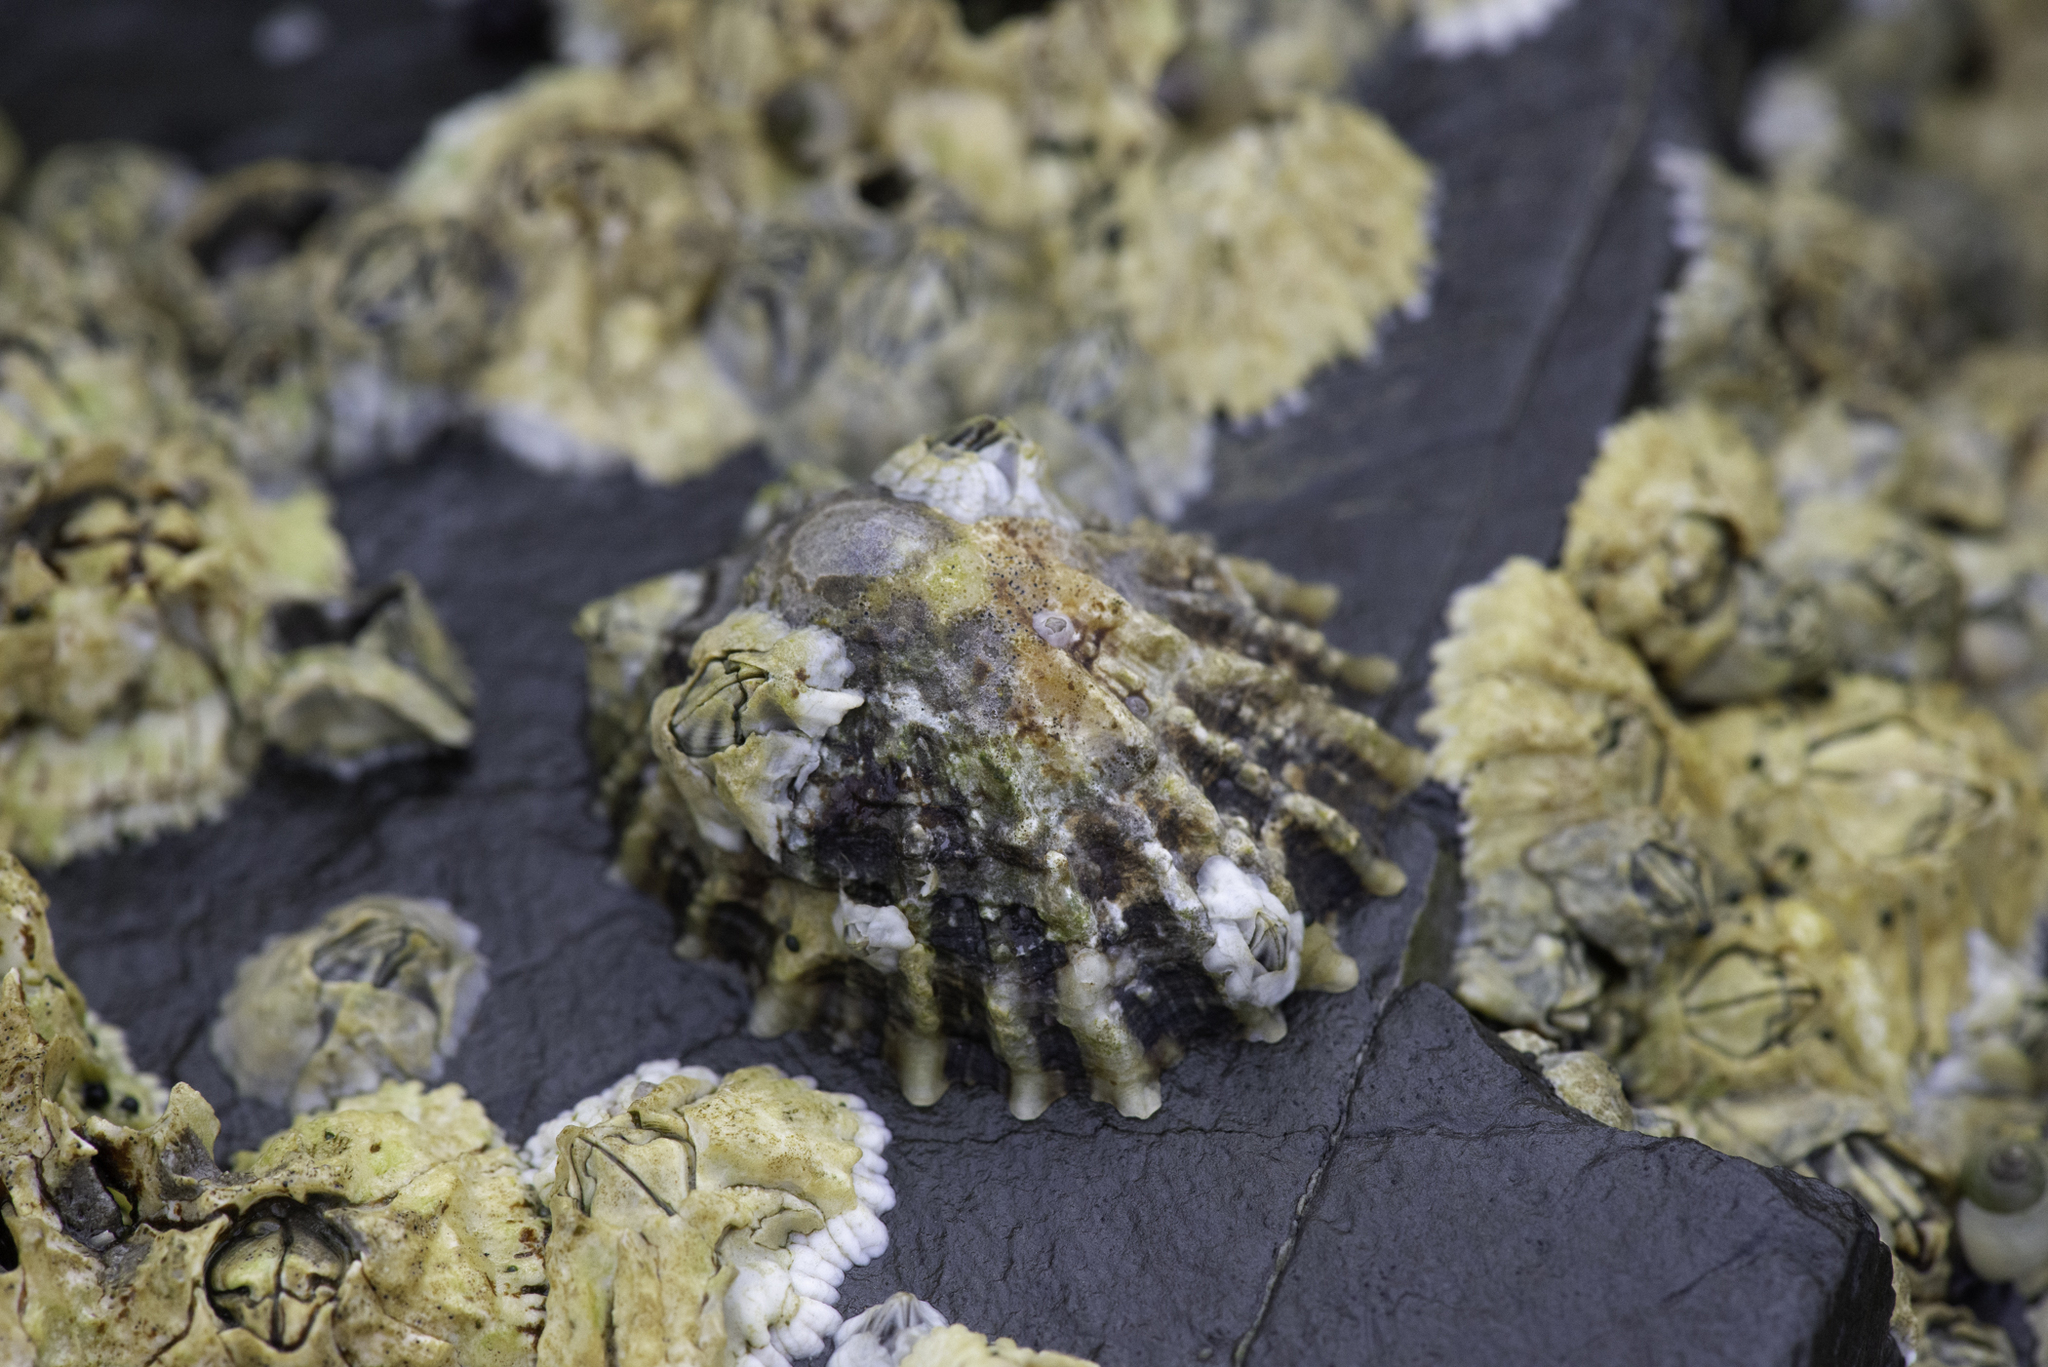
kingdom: Animalia
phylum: Mollusca
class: Gastropoda
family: Patellidae
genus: Patella
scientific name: Patella vulgata
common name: Common limpet
